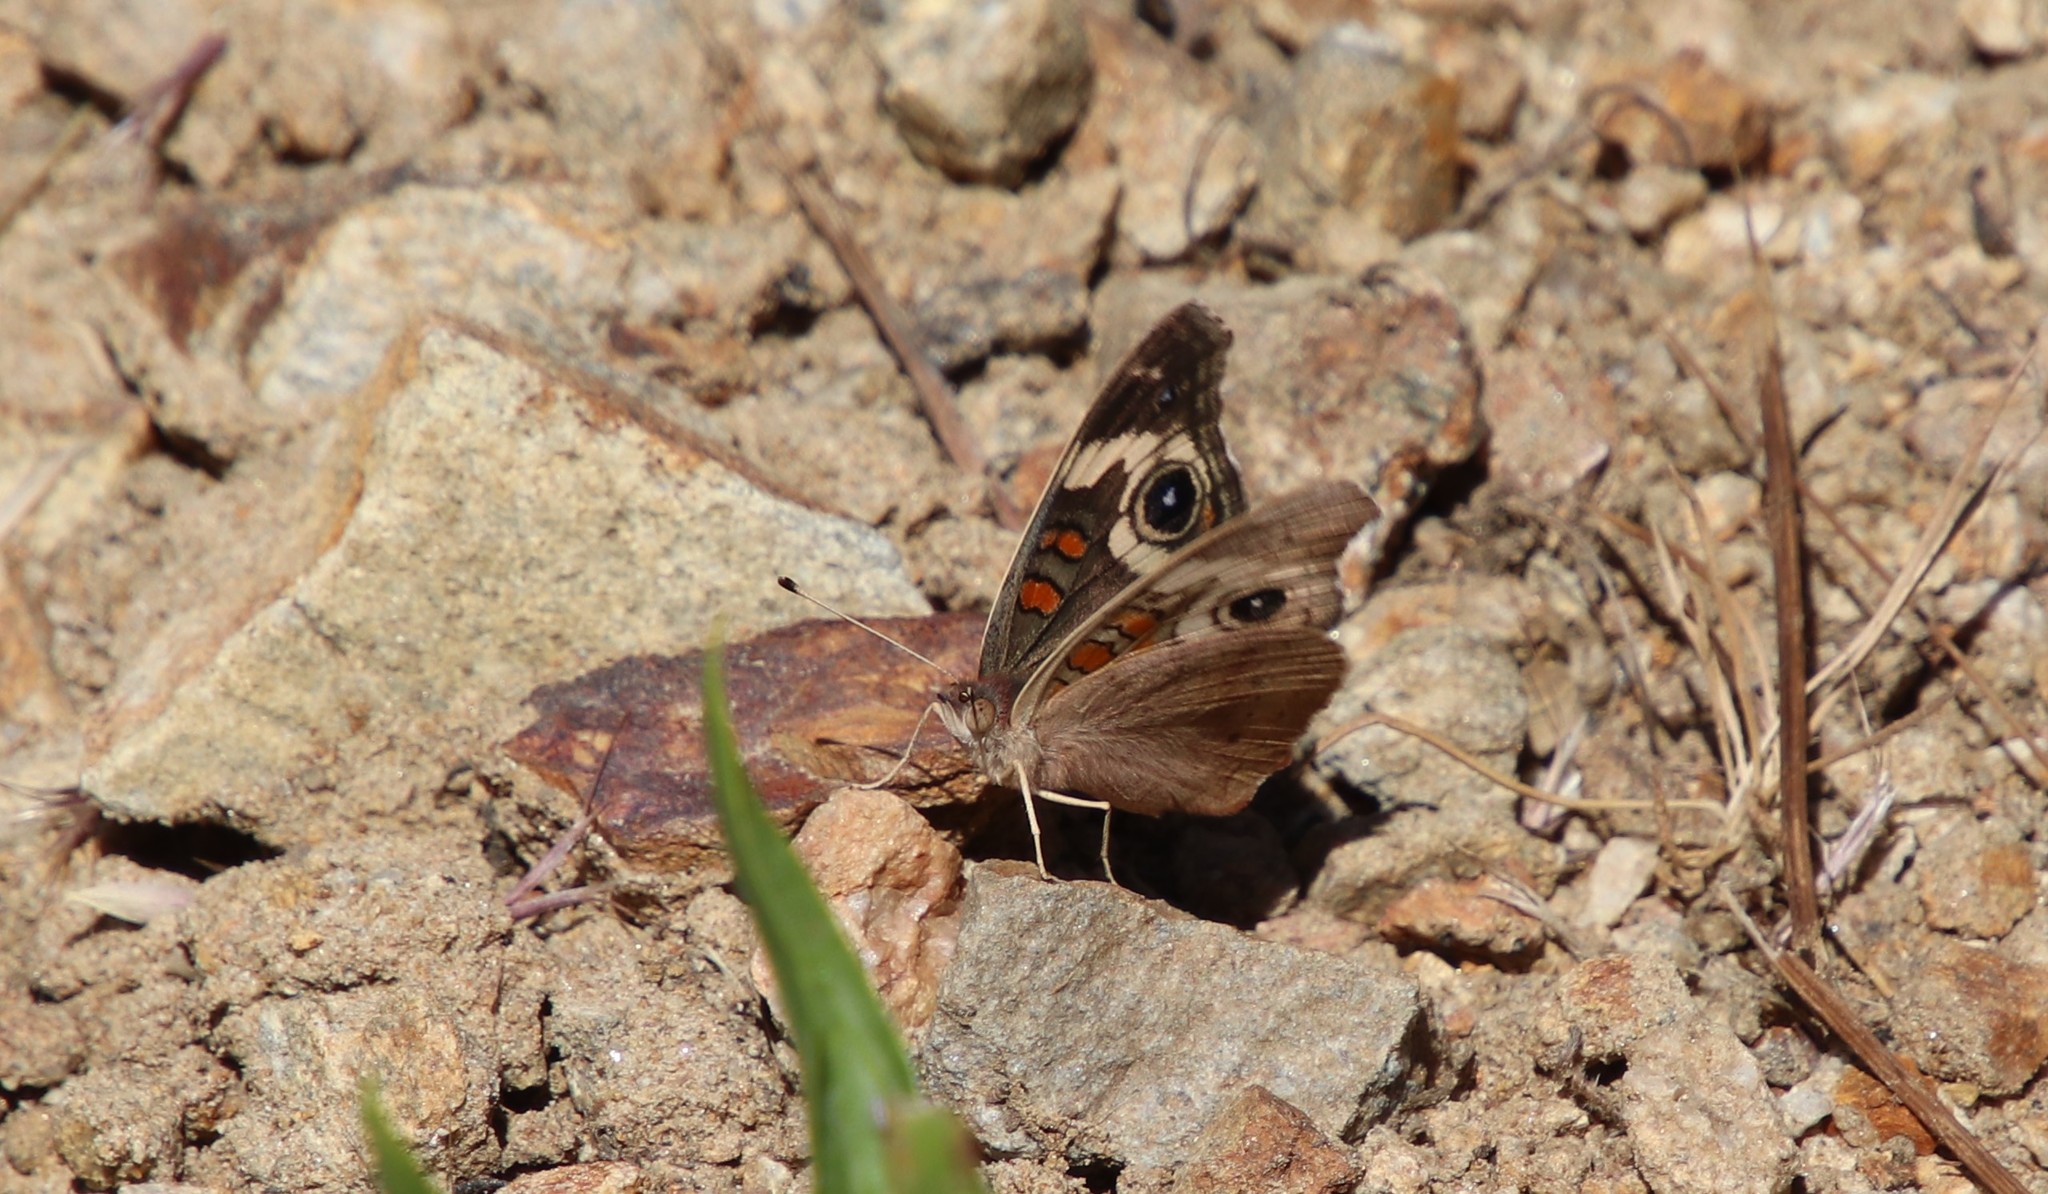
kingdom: Animalia
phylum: Arthropoda
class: Insecta
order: Lepidoptera
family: Nymphalidae
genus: Junonia
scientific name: Junonia grisea
